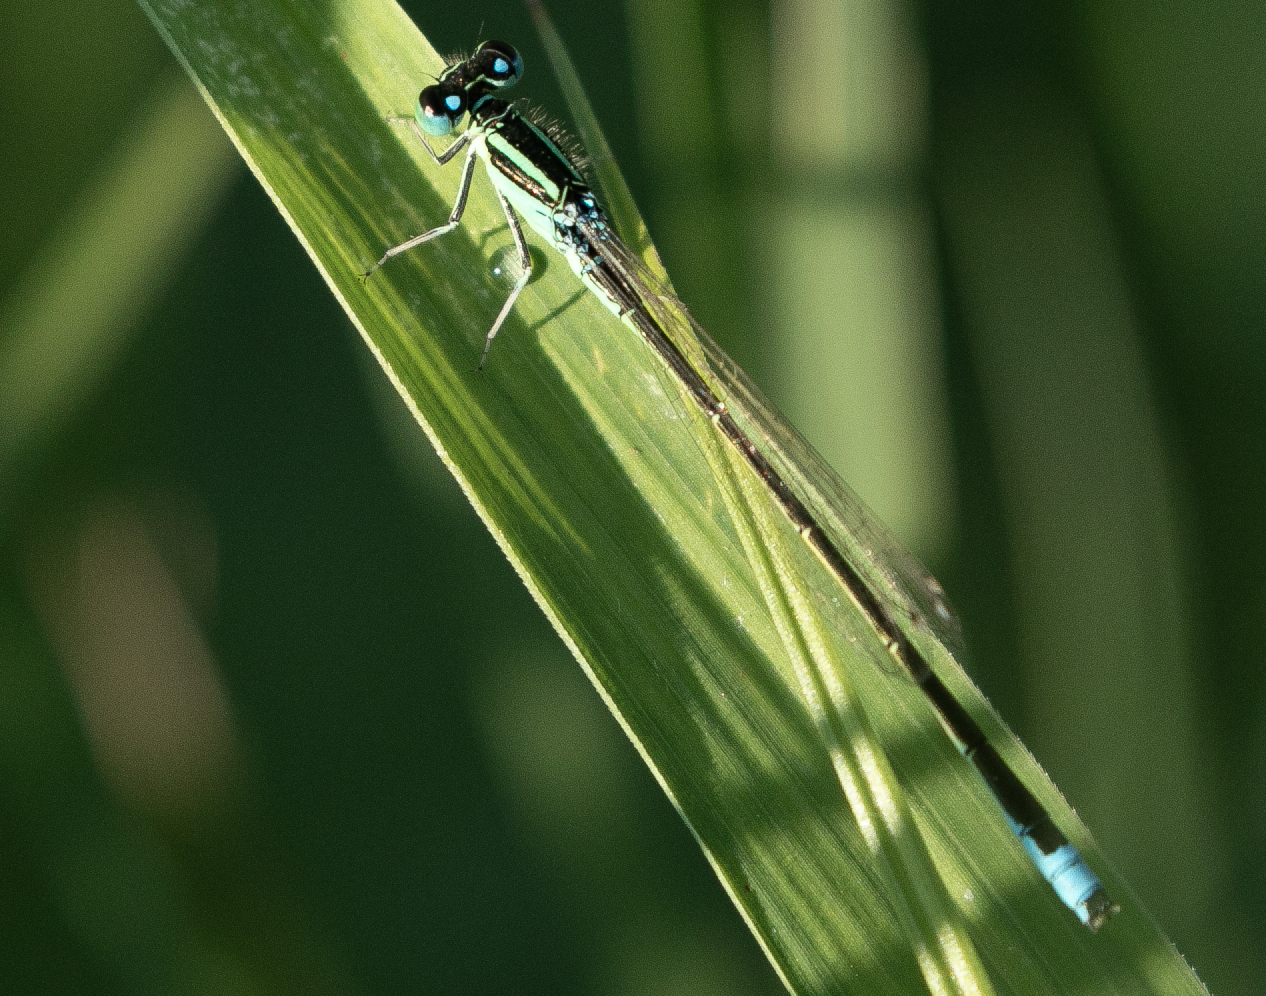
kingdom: Animalia
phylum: Arthropoda
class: Insecta
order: Odonata
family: Coenagrionidae
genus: Ischnura
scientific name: Ischnura pumilio
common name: Scarce blue-tailed damselfly
